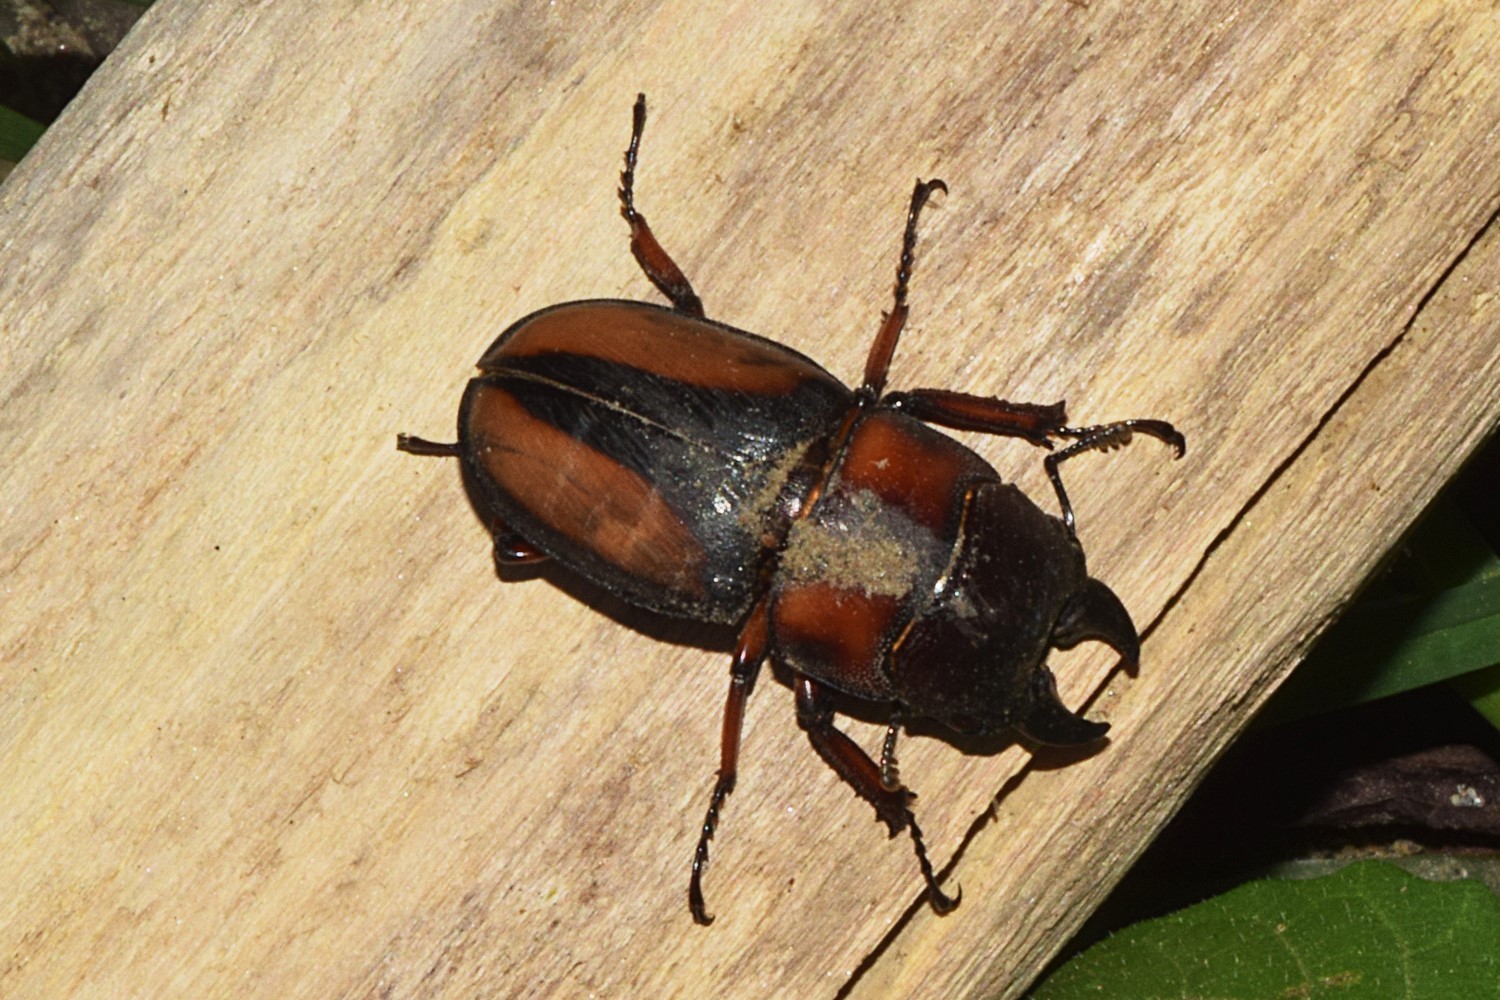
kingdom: Animalia
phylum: Arthropoda
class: Insecta
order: Coleoptera
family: Lucanidae
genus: Prosopocoilus
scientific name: Prosopocoilus biplagiatus
